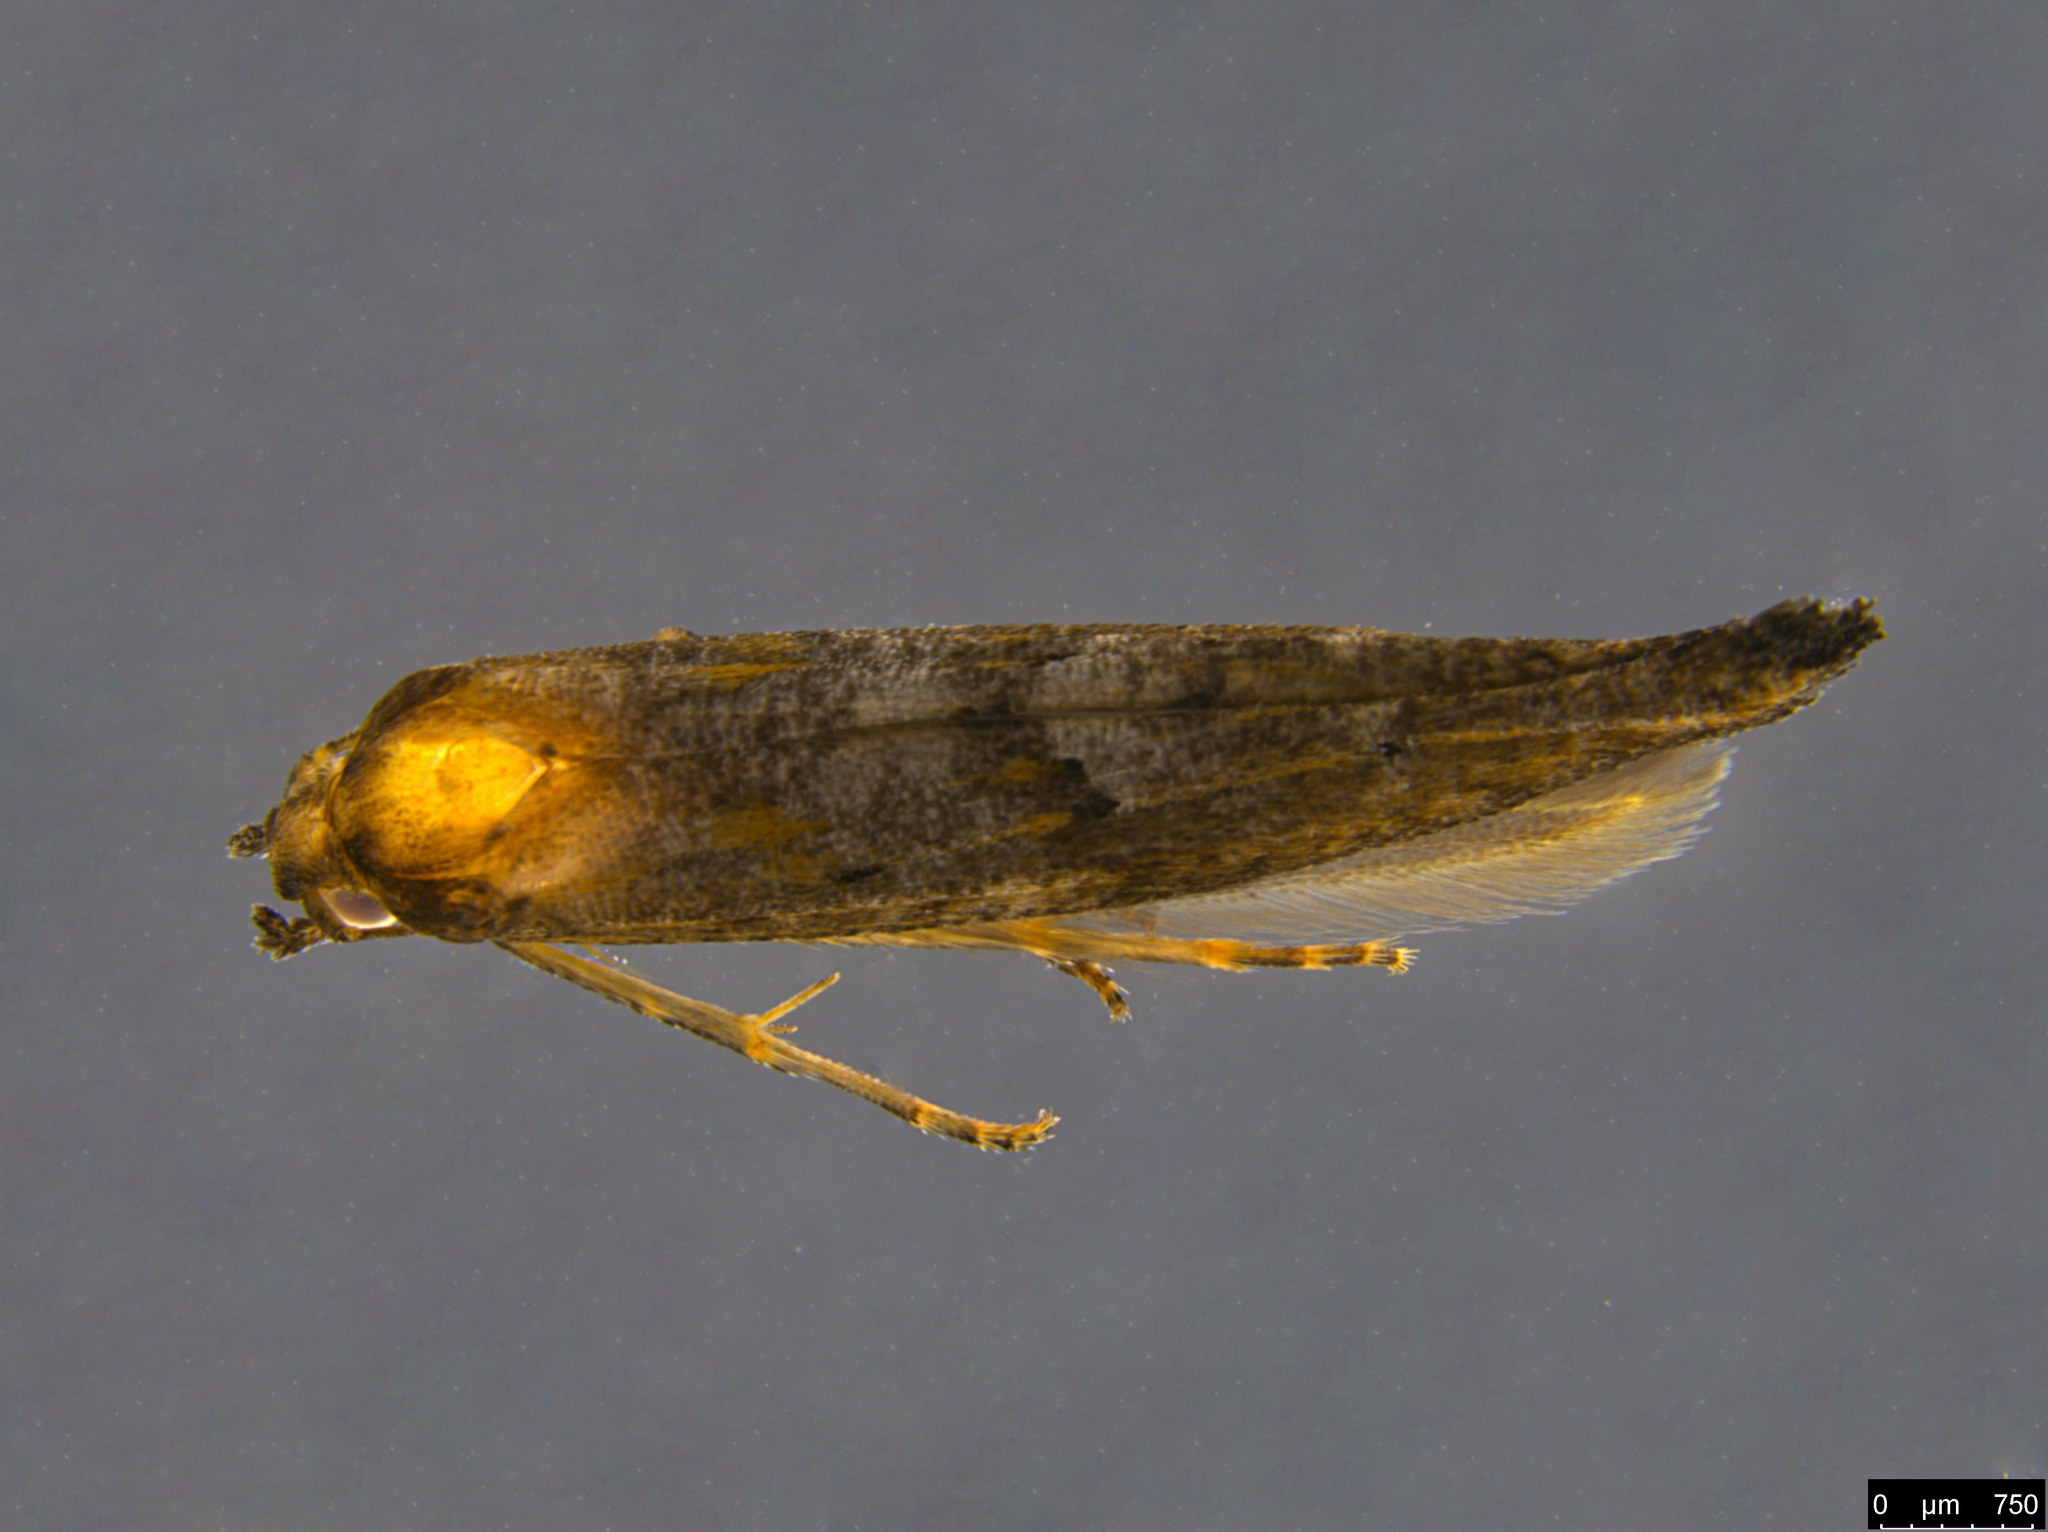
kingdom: Animalia
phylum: Arthropoda
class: Insecta
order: Lepidoptera
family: Epermeniidae
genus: Epermenia
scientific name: Epermenia exilis
